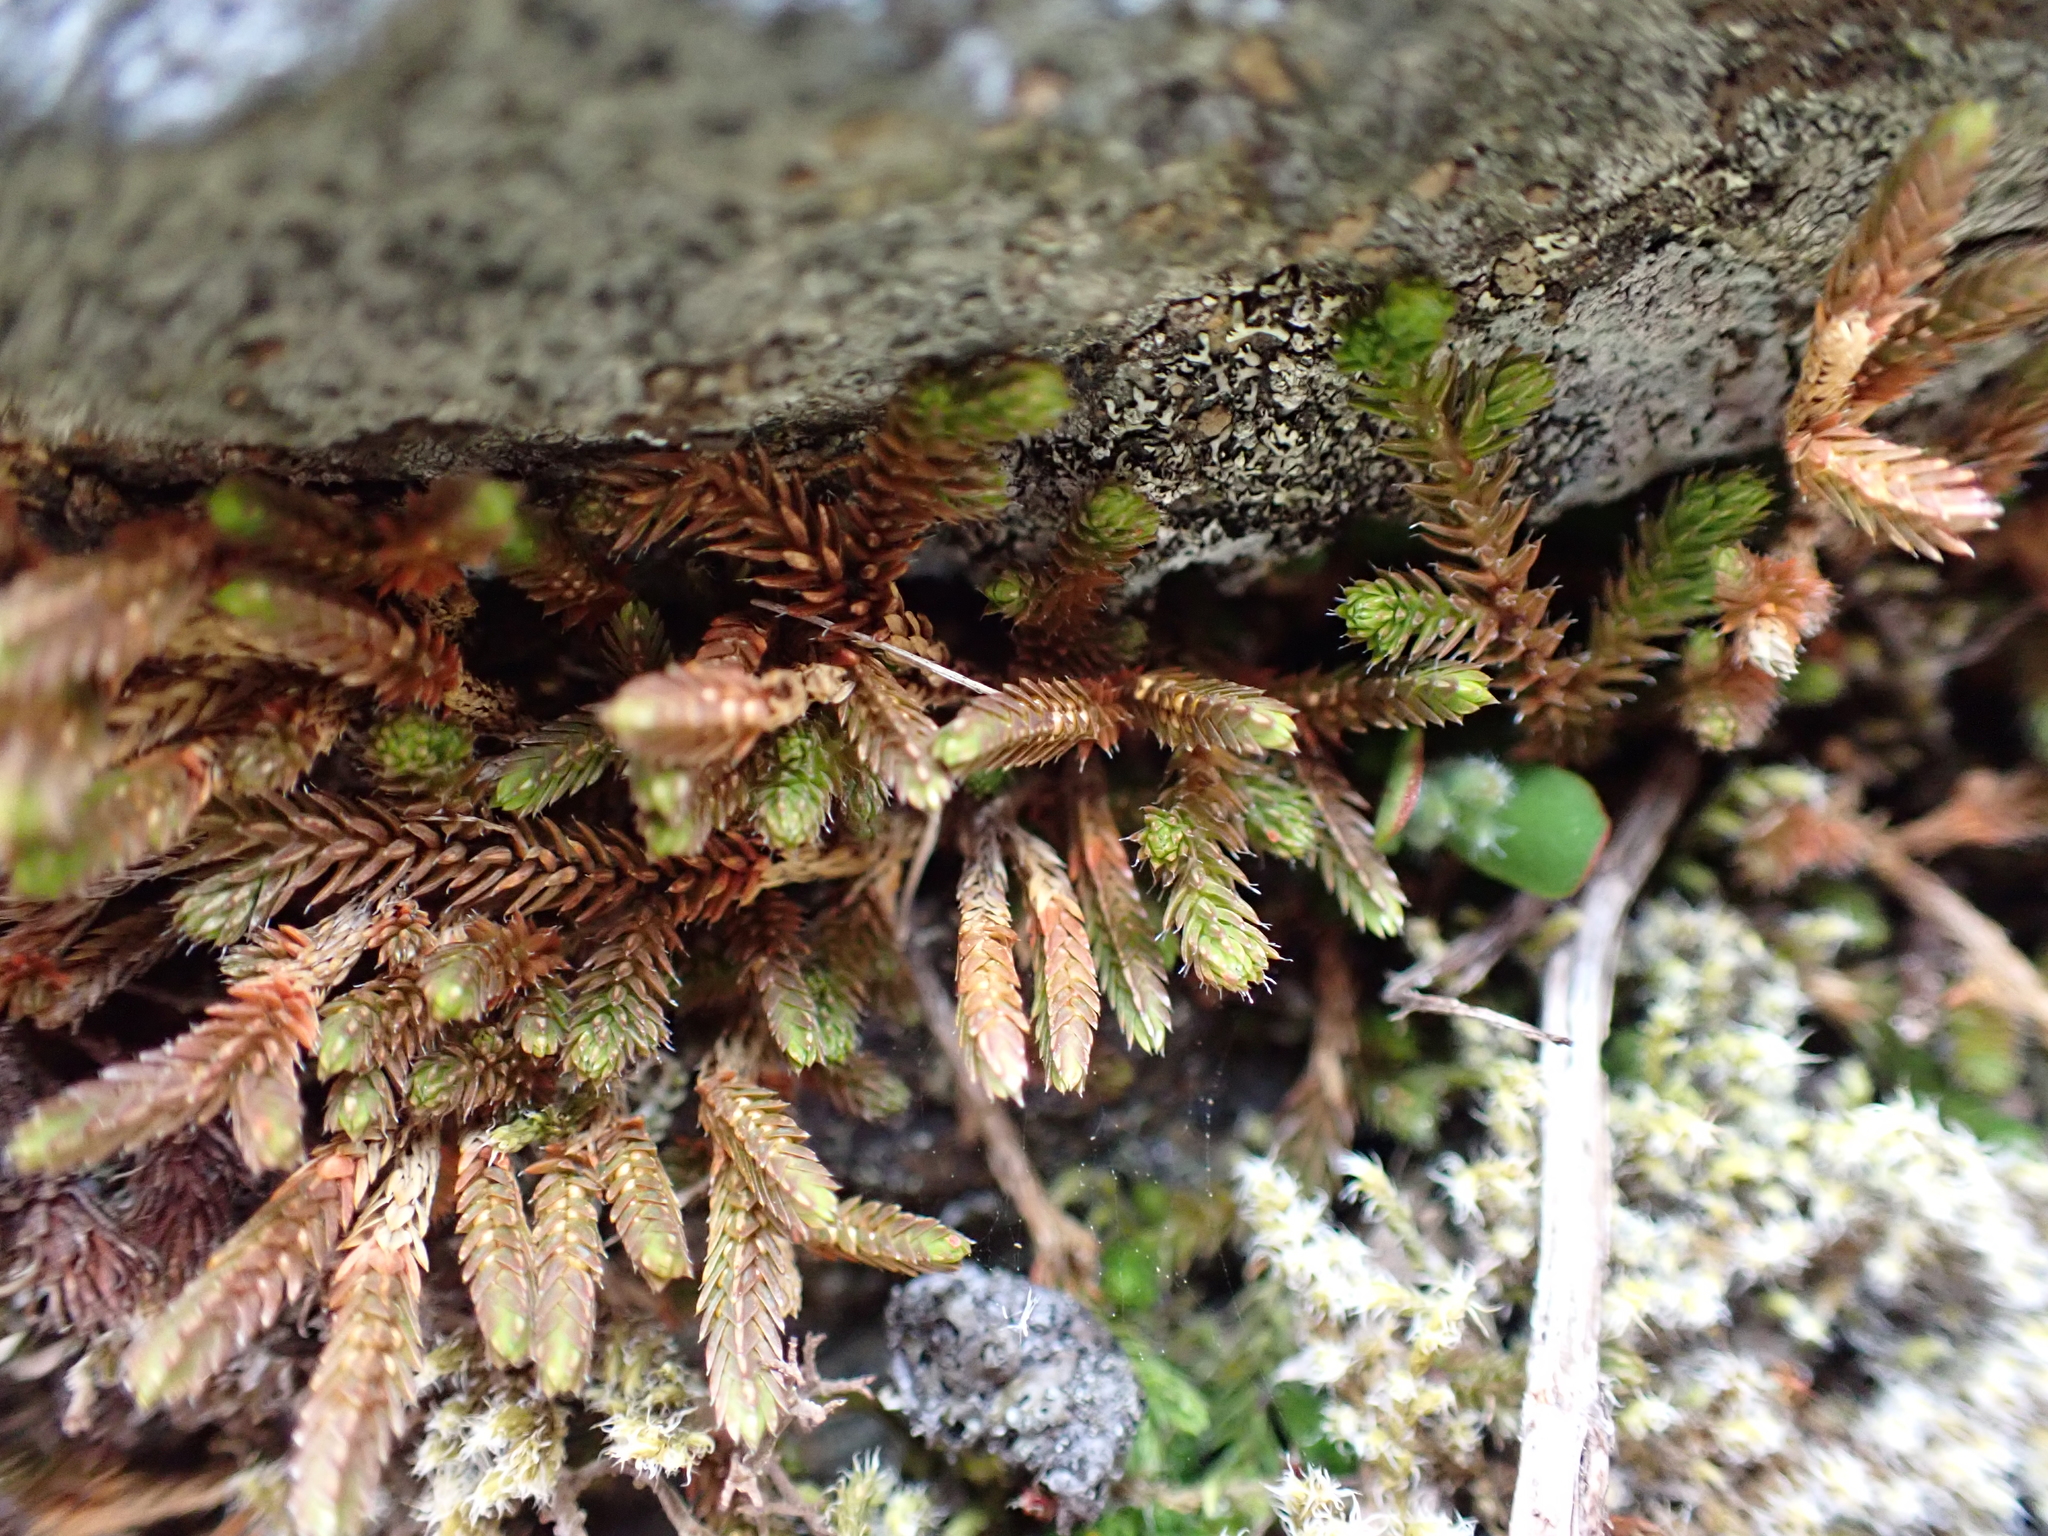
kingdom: Plantae
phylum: Tracheophyta
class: Lycopodiopsida
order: Selaginellales
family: Selaginellaceae
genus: Selaginella
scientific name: Selaginella wallacei
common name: Wallace's selaginella
